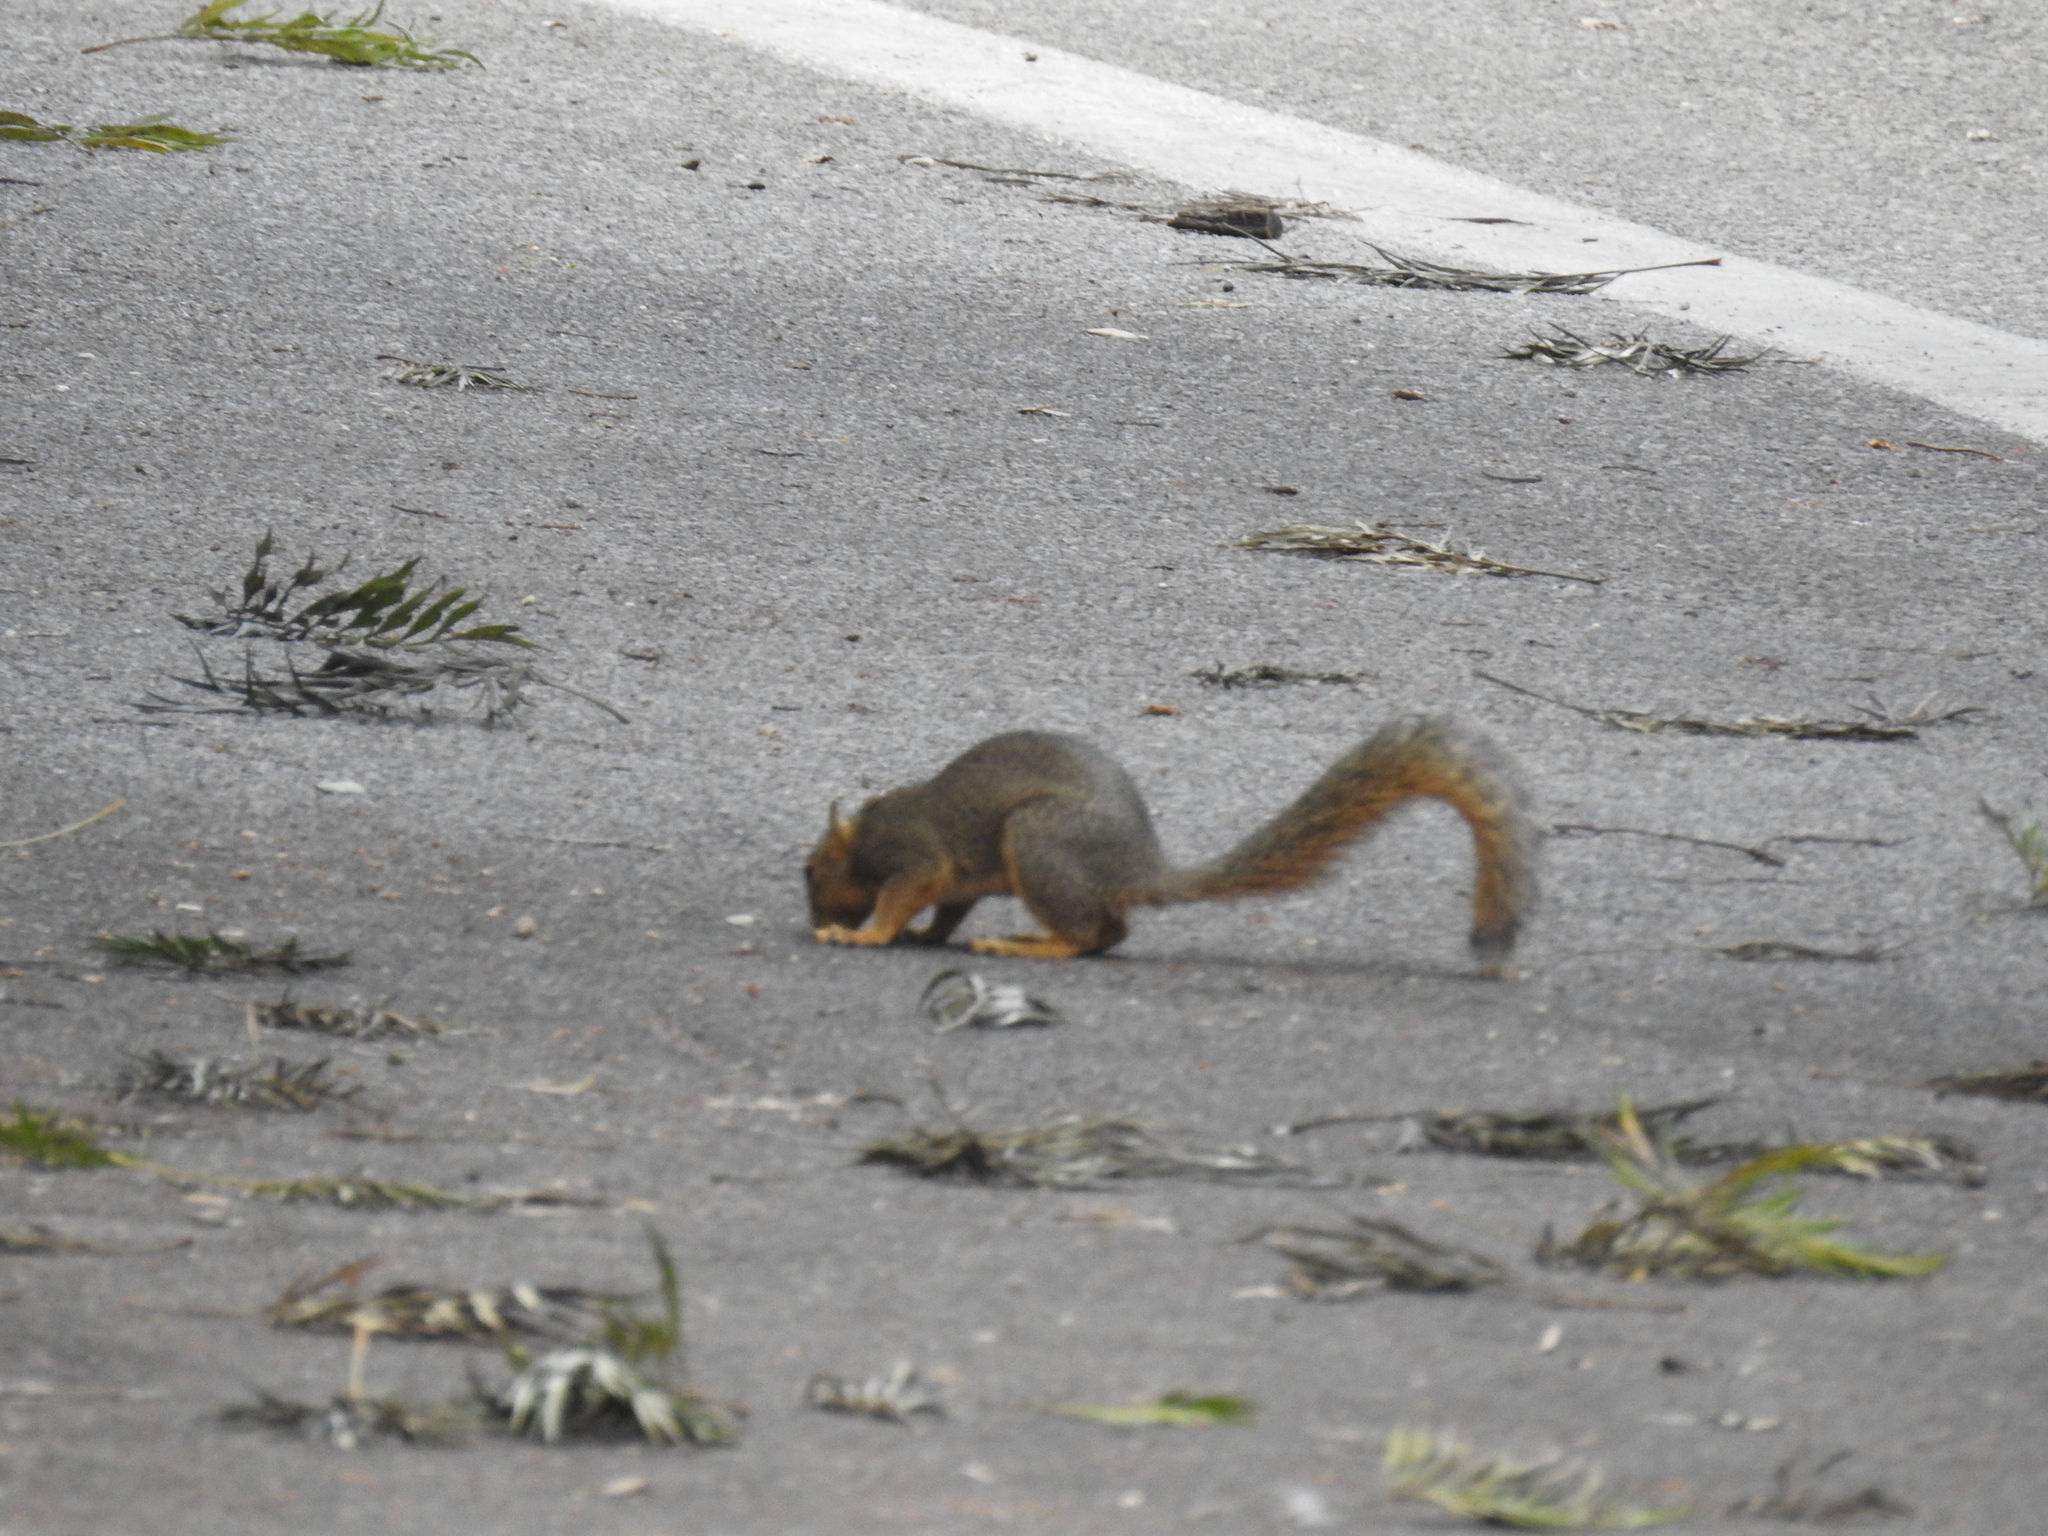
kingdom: Animalia
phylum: Chordata
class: Mammalia
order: Rodentia
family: Sciuridae
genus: Sciurus
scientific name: Sciurus niger
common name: Fox squirrel
